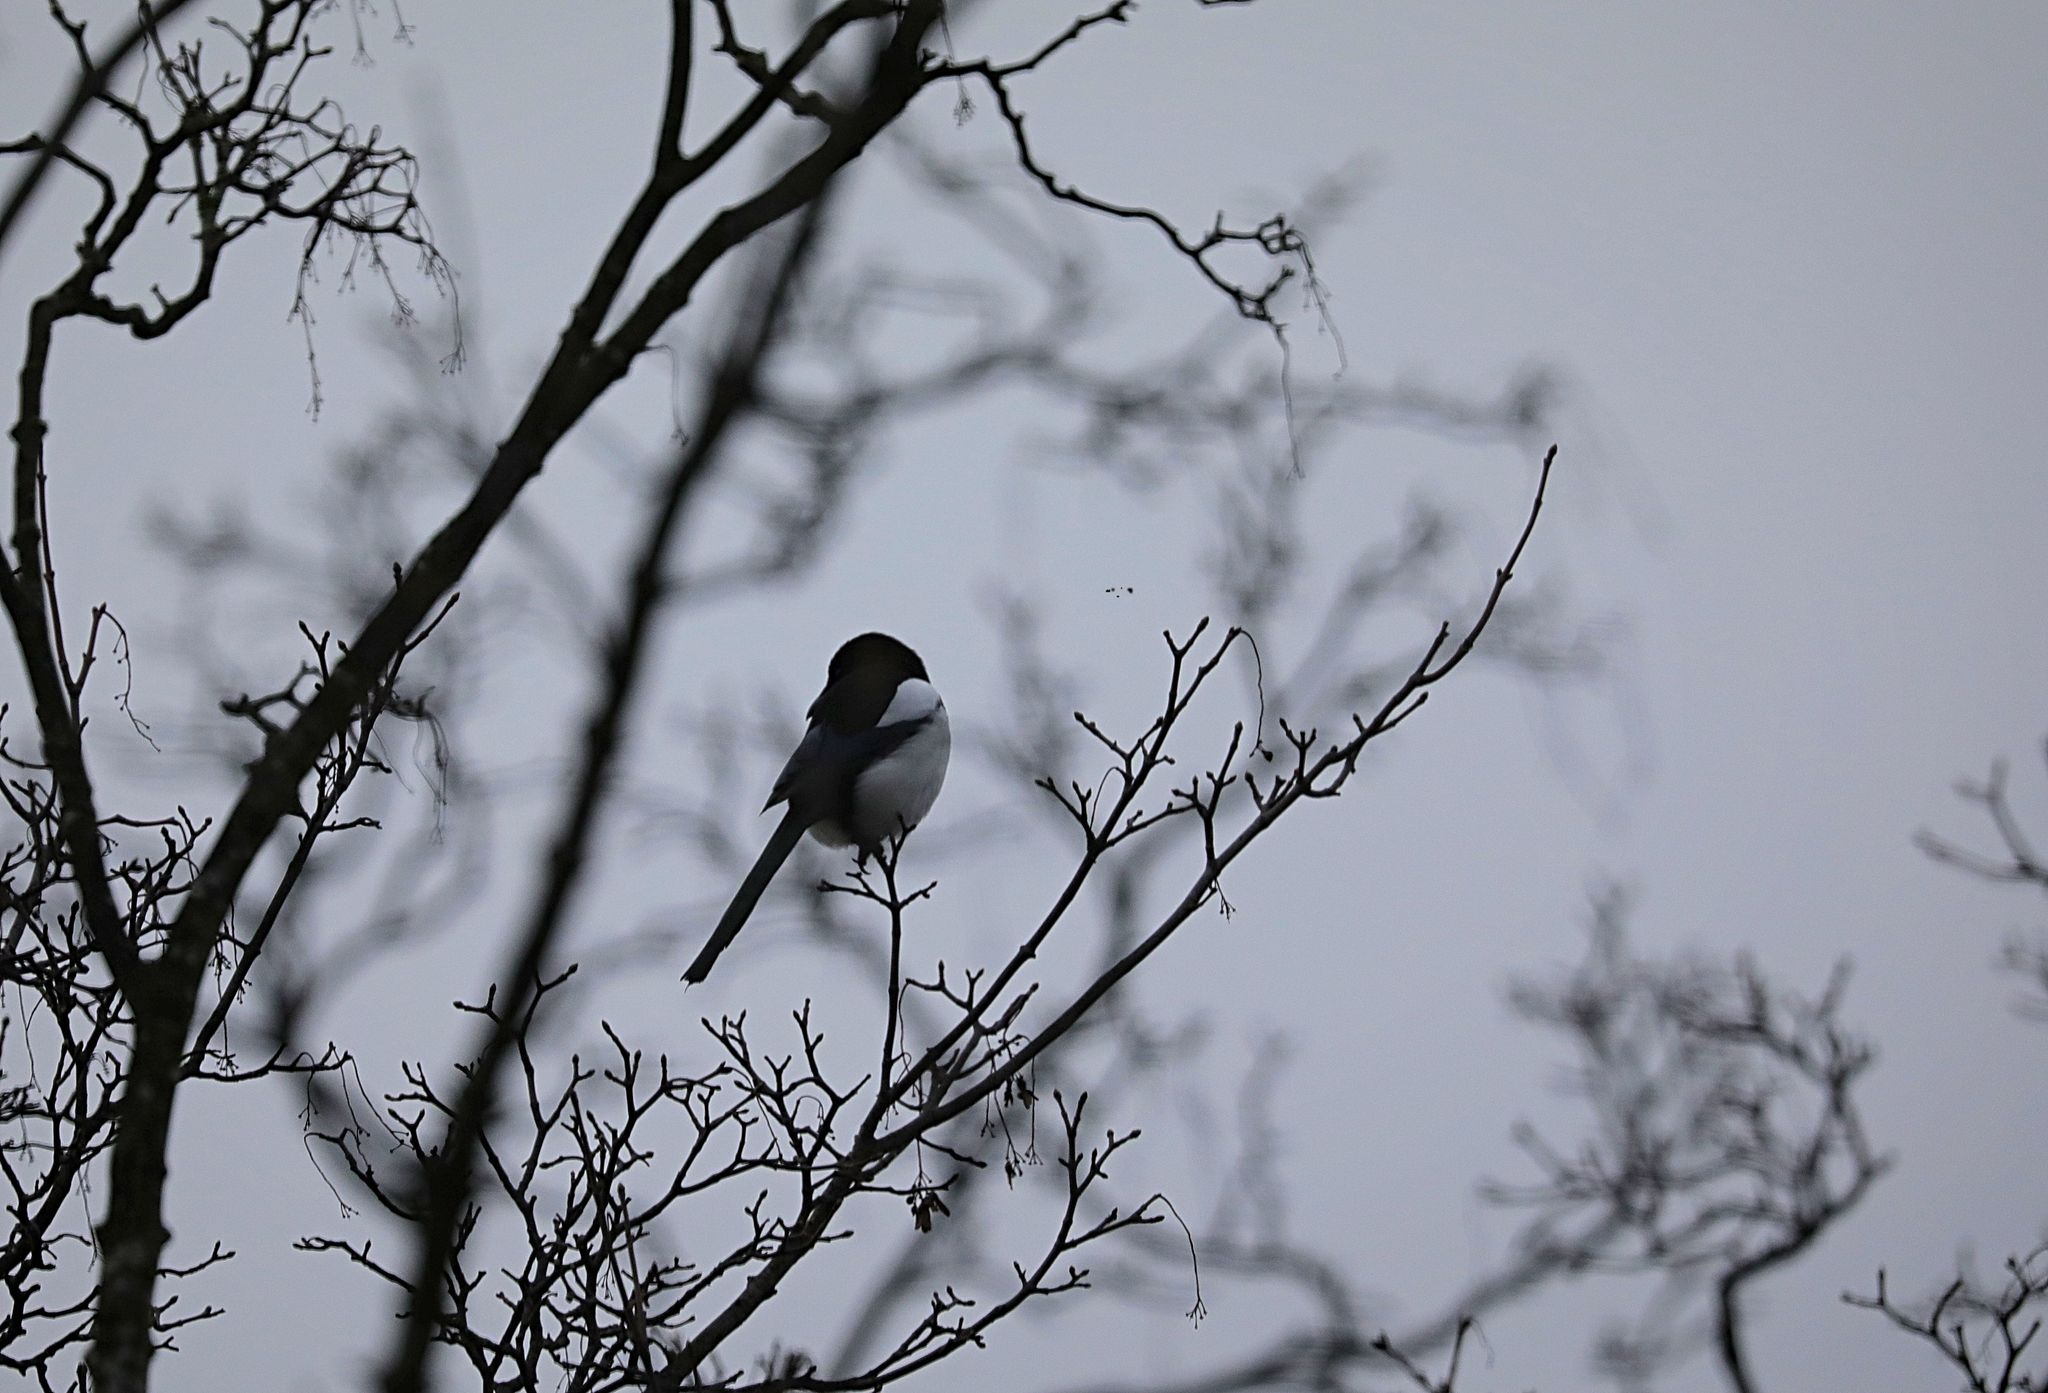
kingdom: Animalia
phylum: Chordata
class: Aves
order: Passeriformes
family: Corvidae
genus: Pica
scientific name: Pica pica
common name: Eurasian magpie
